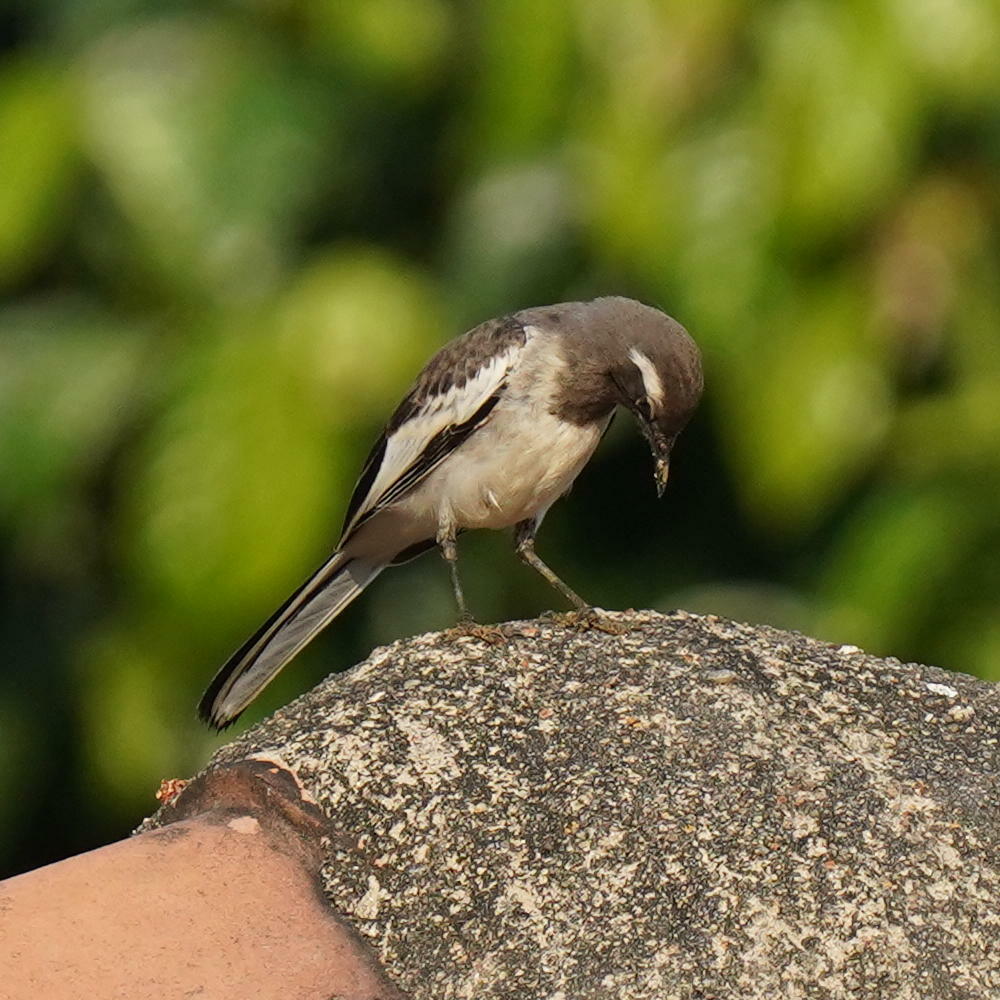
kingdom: Animalia
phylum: Chordata
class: Aves
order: Passeriformes
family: Motacillidae
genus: Motacilla
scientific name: Motacilla maderaspatensis
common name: White-browed wagtail
